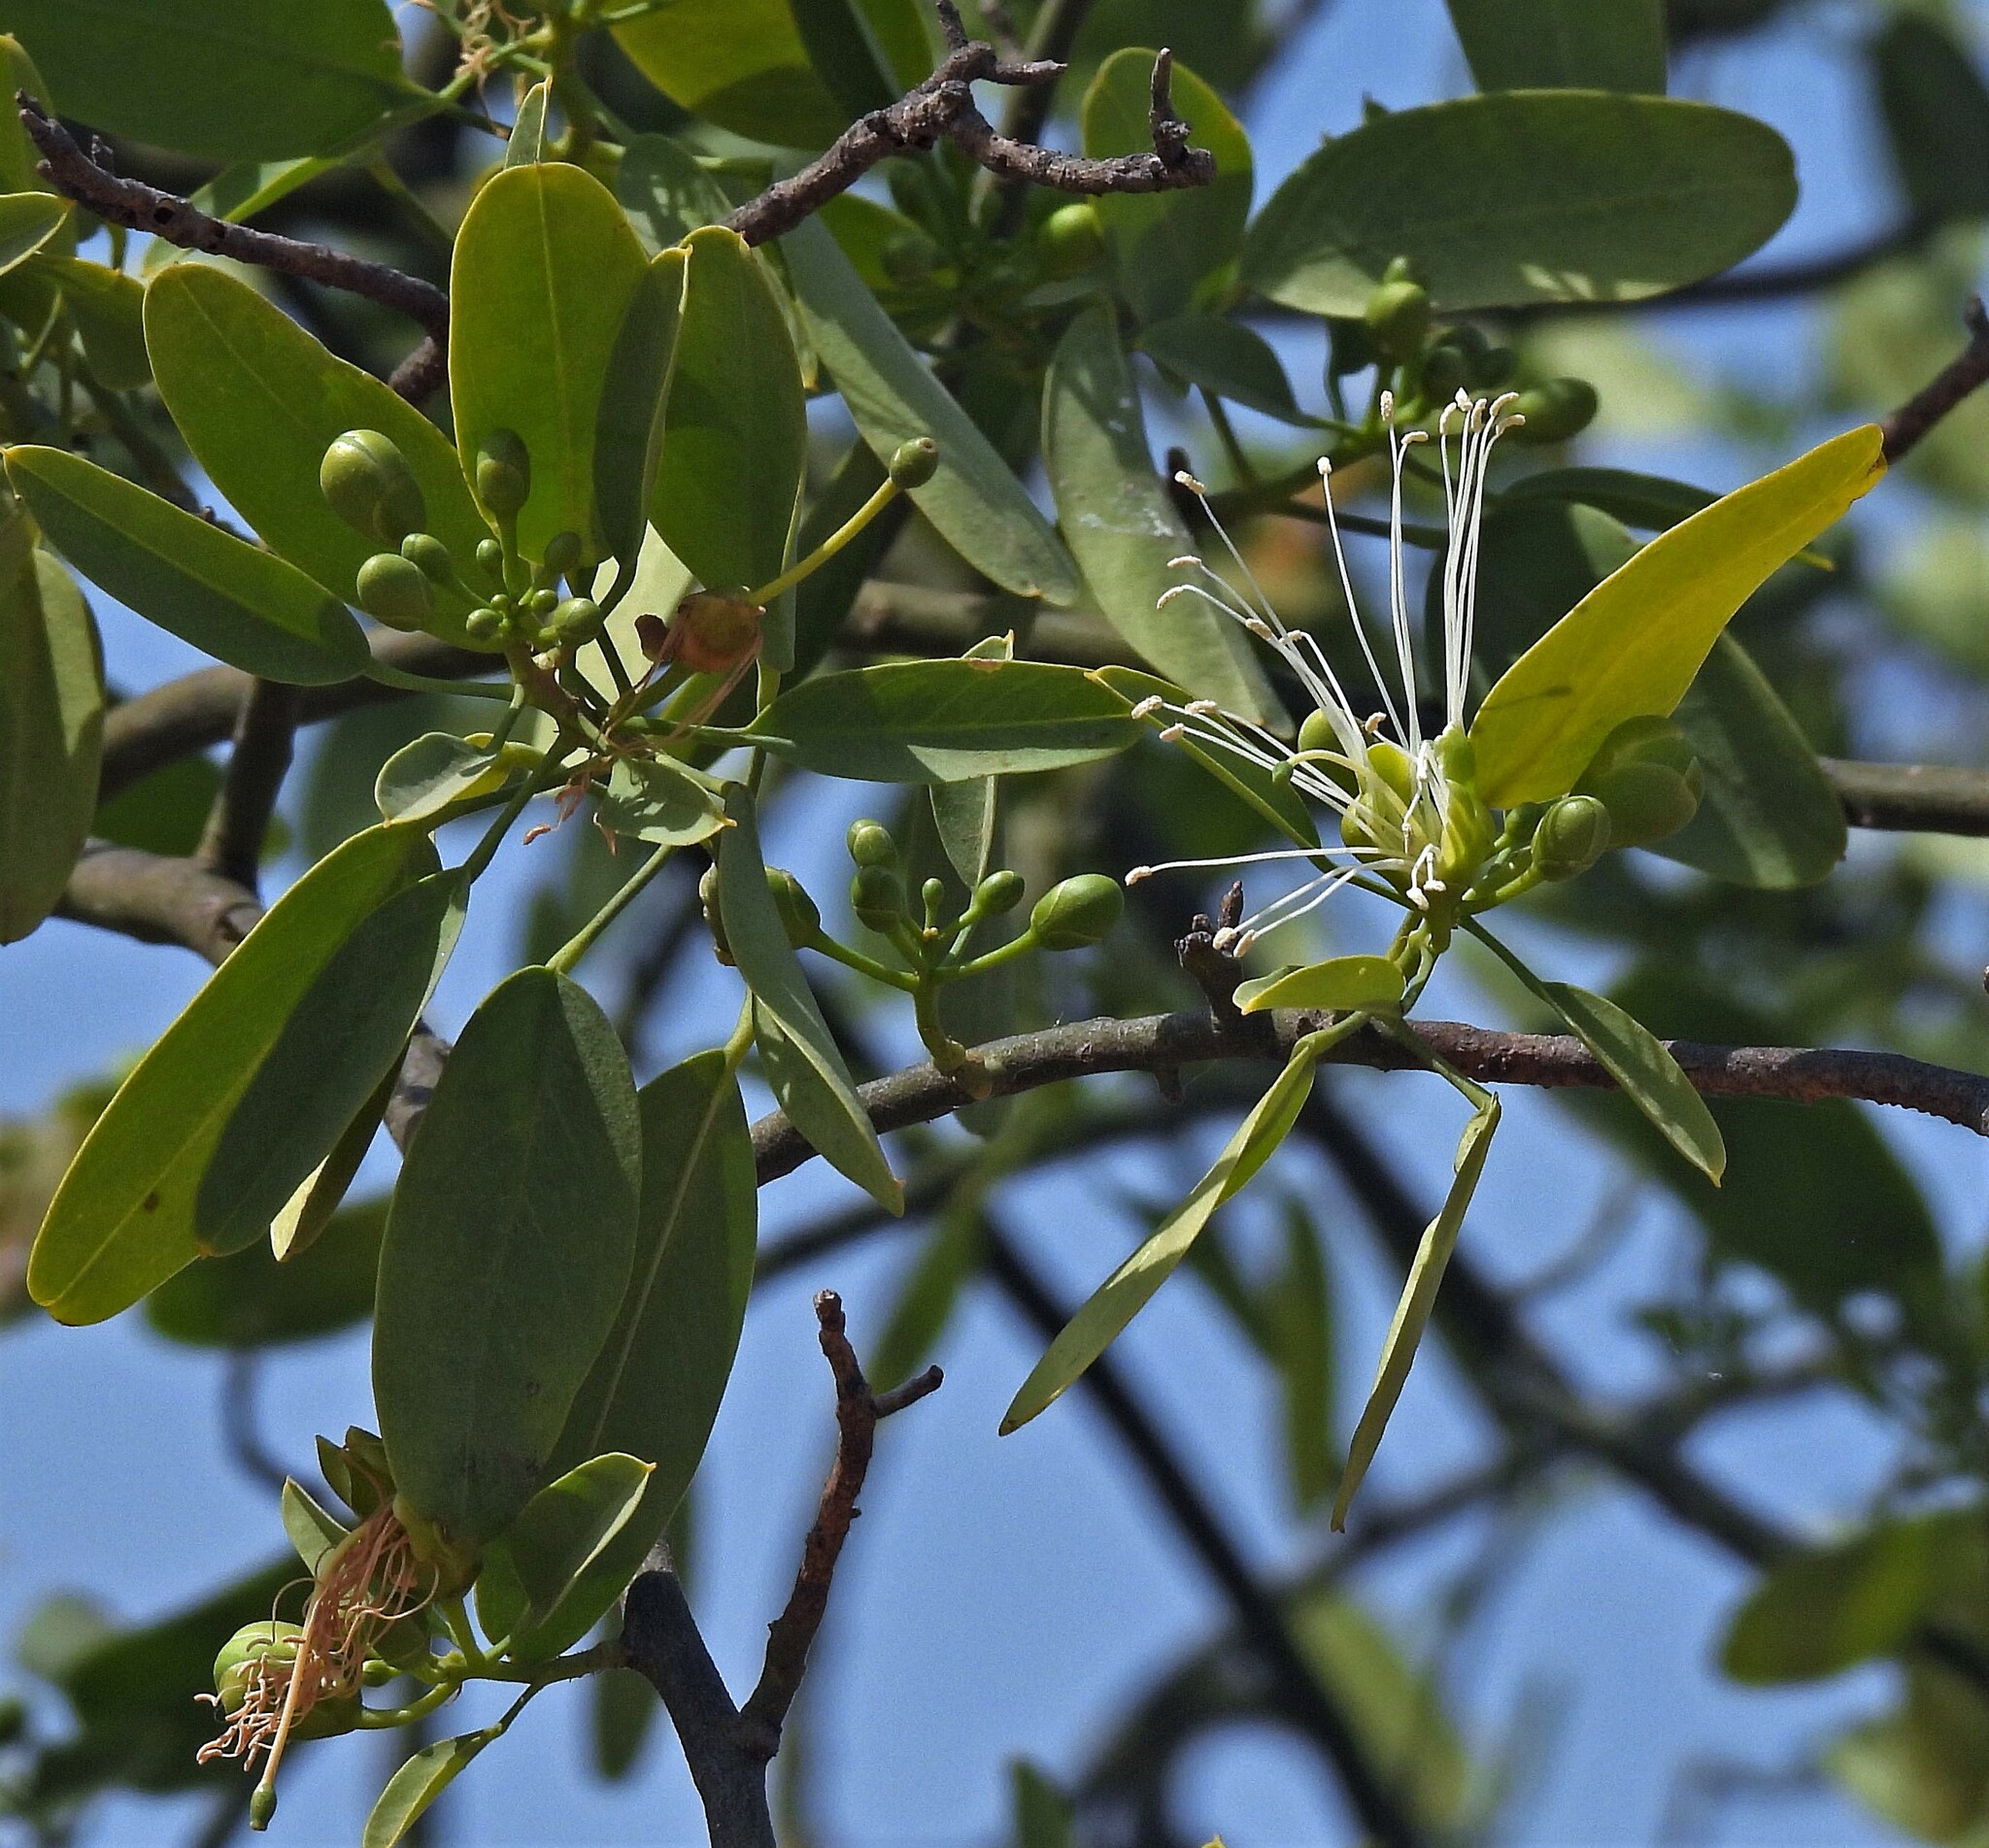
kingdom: Plantae
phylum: Tracheophyta
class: Magnoliopsida
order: Brassicales
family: Capparaceae
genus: Anisocapparis
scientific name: Anisocapparis speciosa
